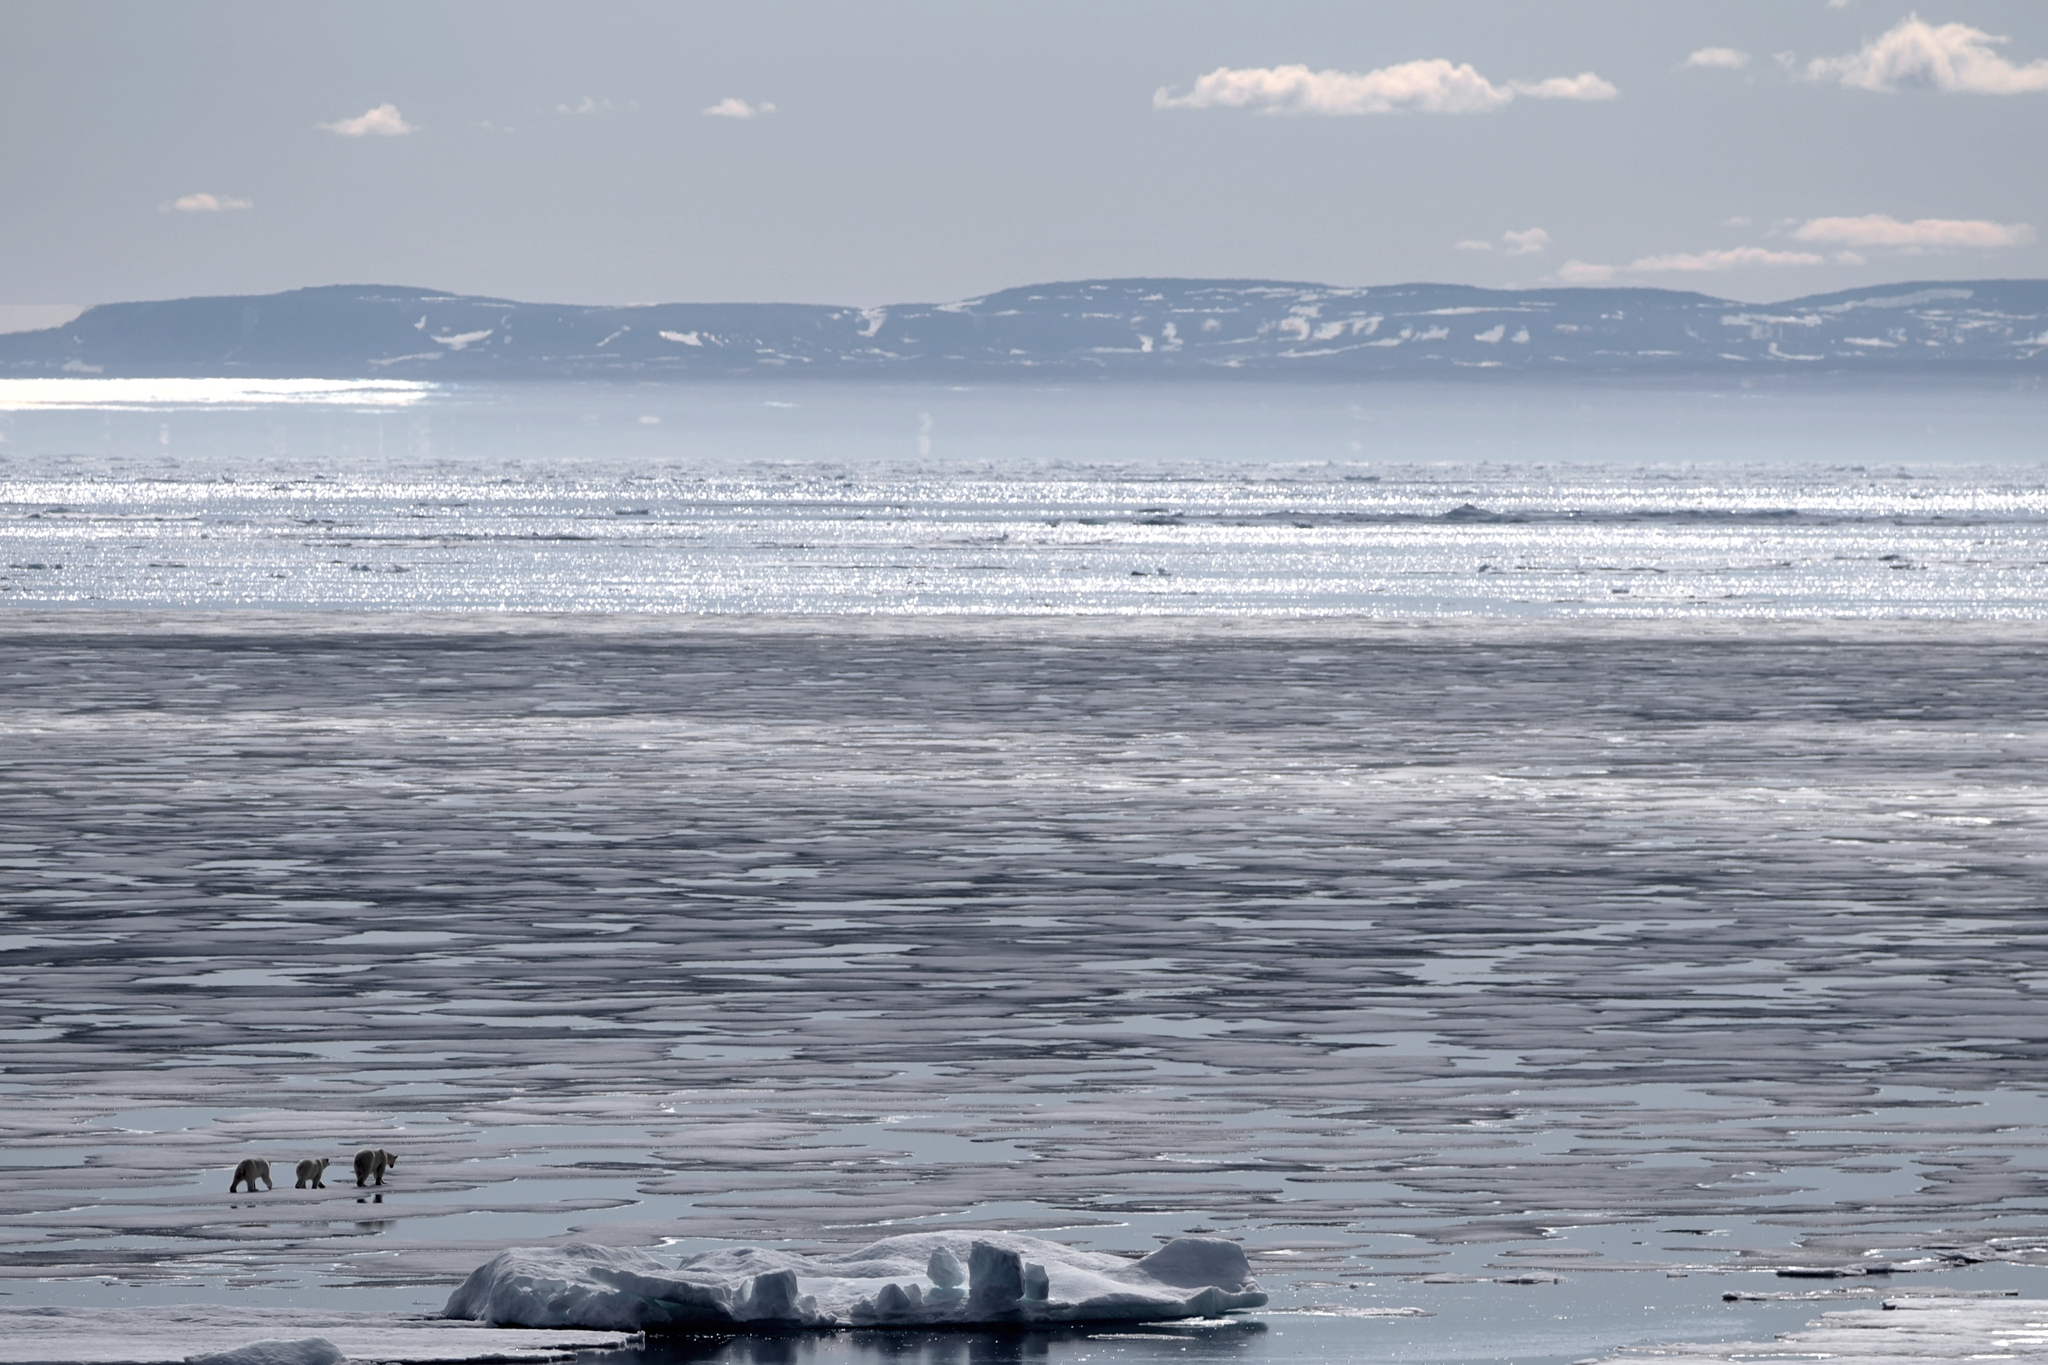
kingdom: Animalia
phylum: Chordata
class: Mammalia
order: Carnivora
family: Ursidae
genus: Ursus
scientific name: Ursus maritimus
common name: Polar bear
